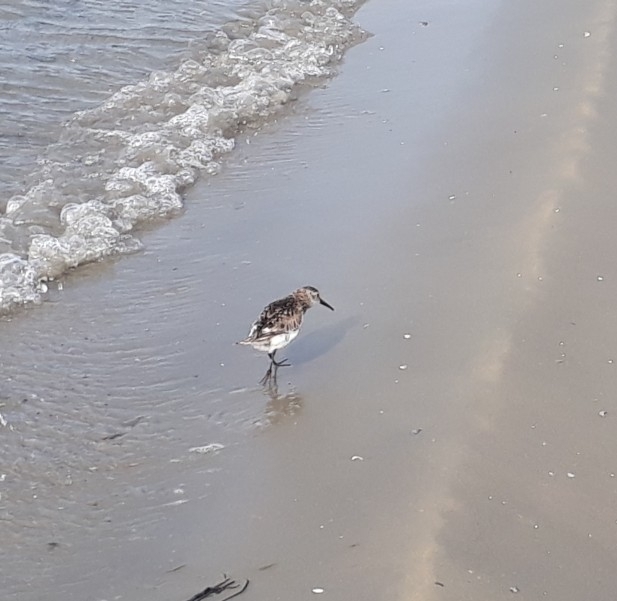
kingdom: Animalia
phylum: Chordata
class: Aves
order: Charadriiformes
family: Scolopacidae
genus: Calidris
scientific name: Calidris alpina
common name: Dunlin
